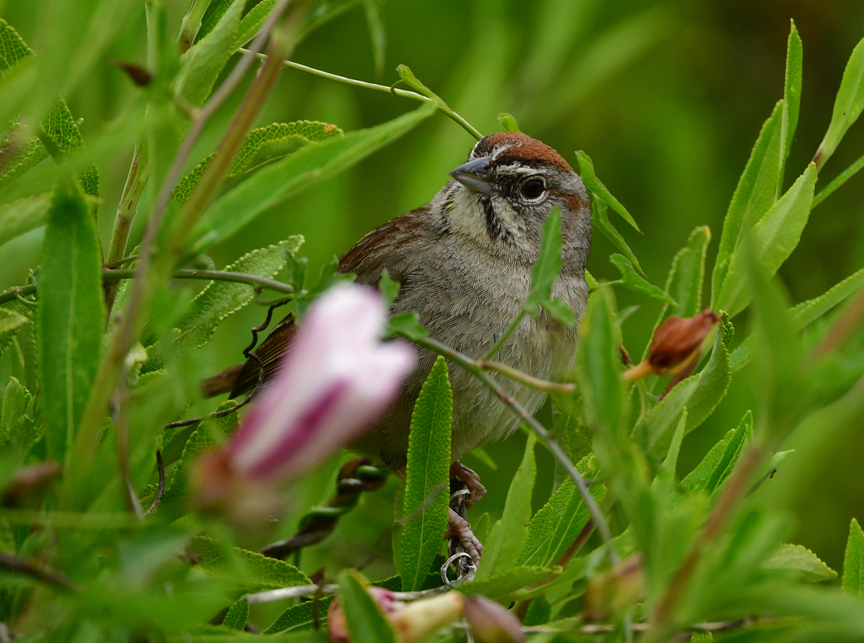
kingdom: Animalia
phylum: Chordata
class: Aves
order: Passeriformes
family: Passerellidae
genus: Aimophila
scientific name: Aimophila ruficeps
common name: Rufous-crowned sparrow
